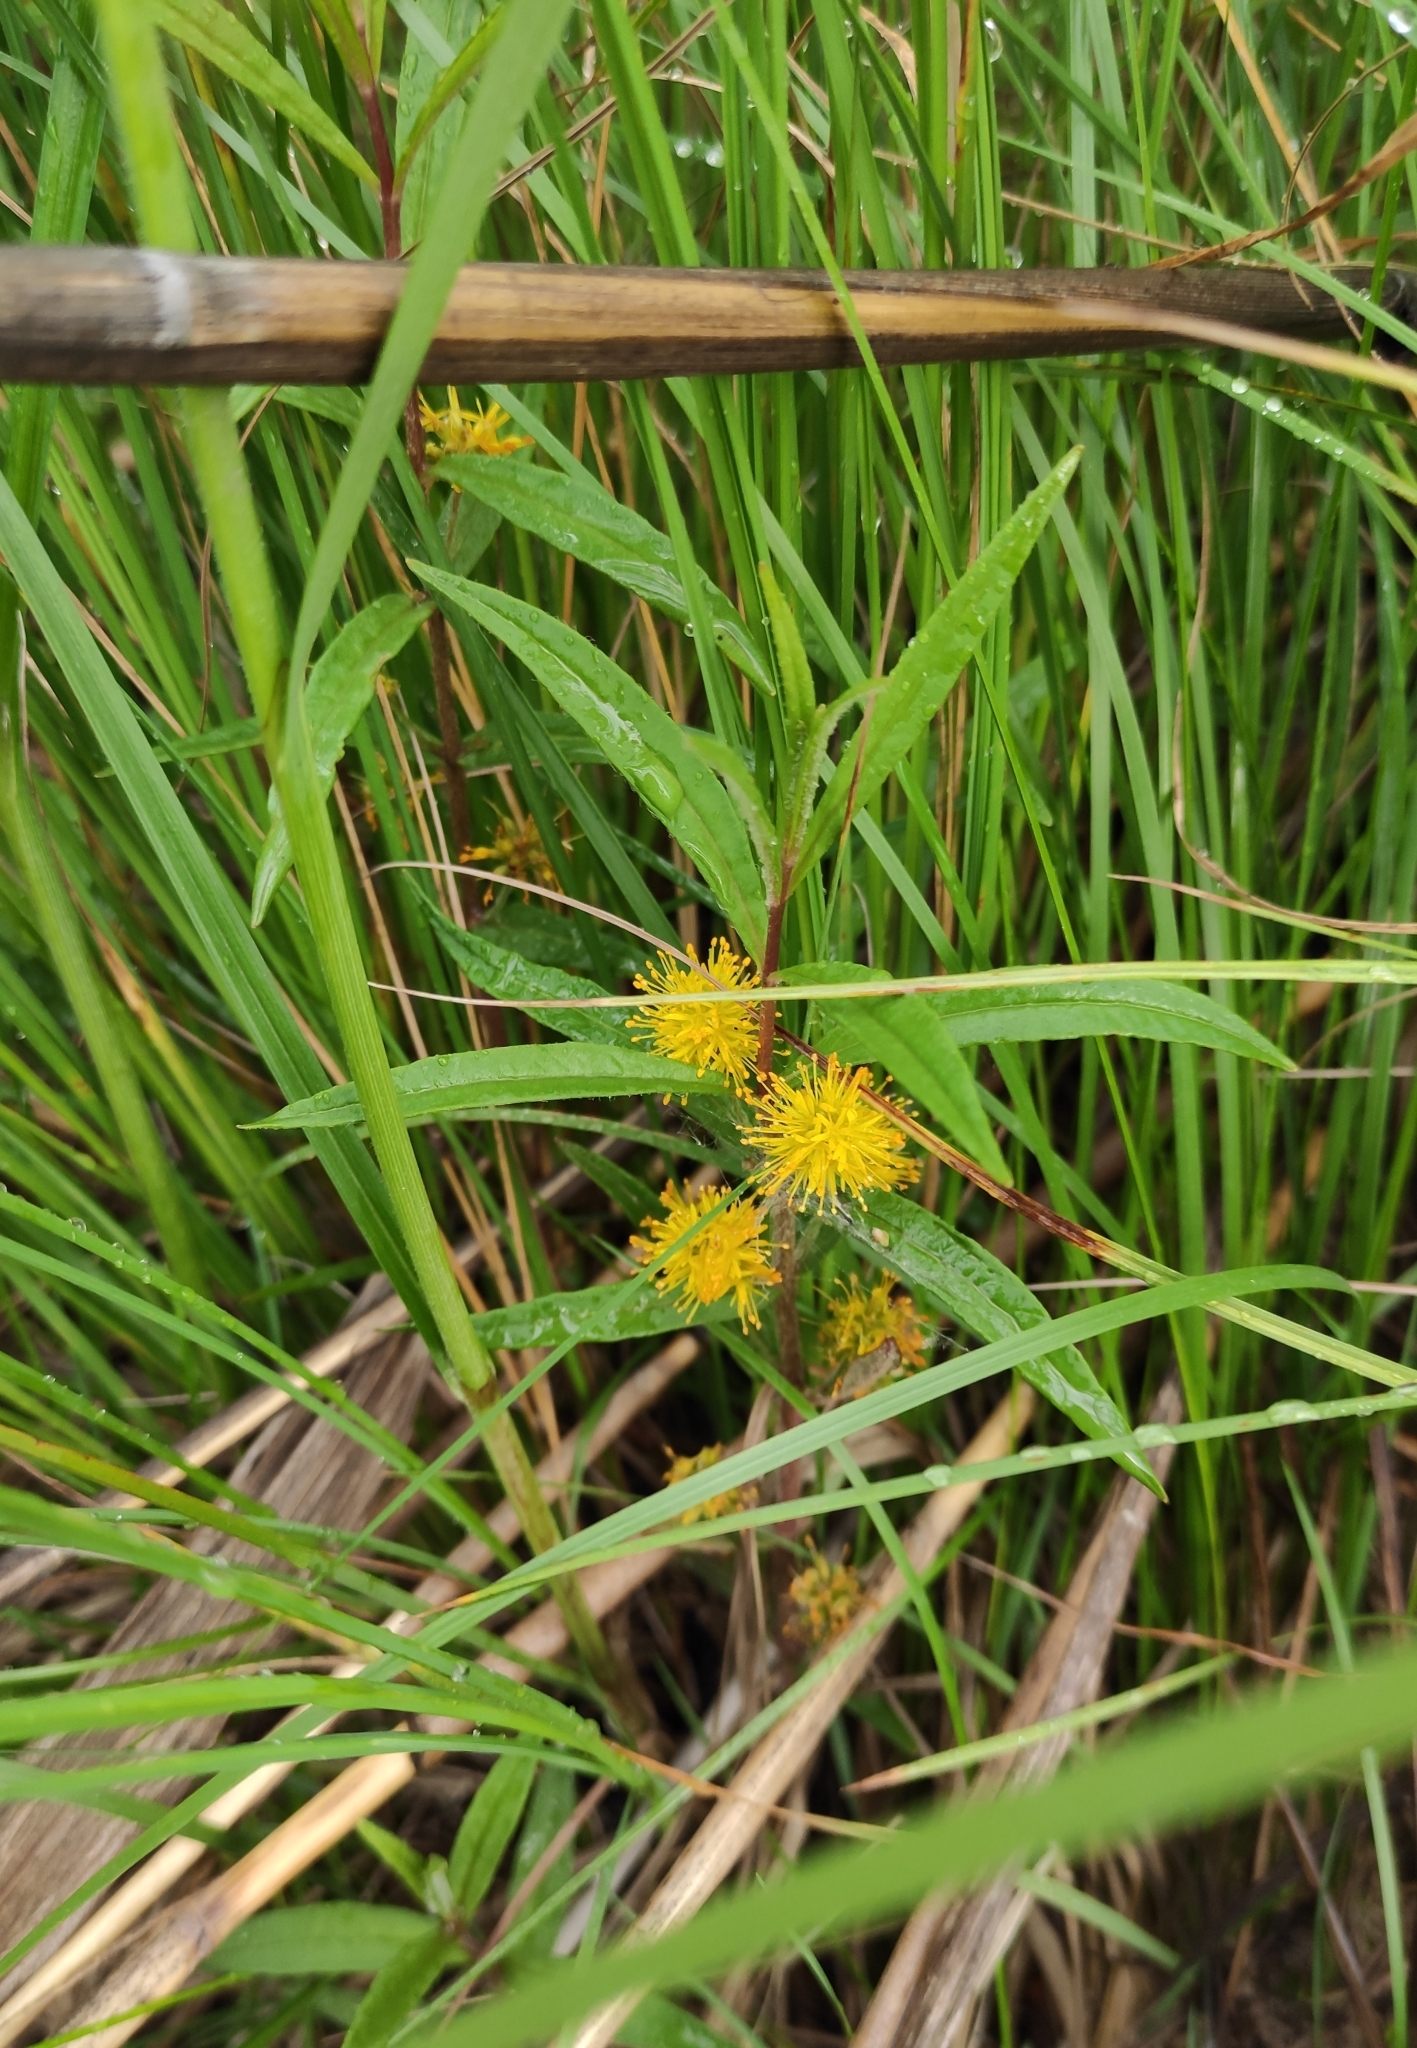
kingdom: Plantae
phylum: Tracheophyta
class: Magnoliopsida
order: Ericales
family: Primulaceae
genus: Lysimachia
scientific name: Lysimachia thyrsiflora
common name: Tufted loosestrife
